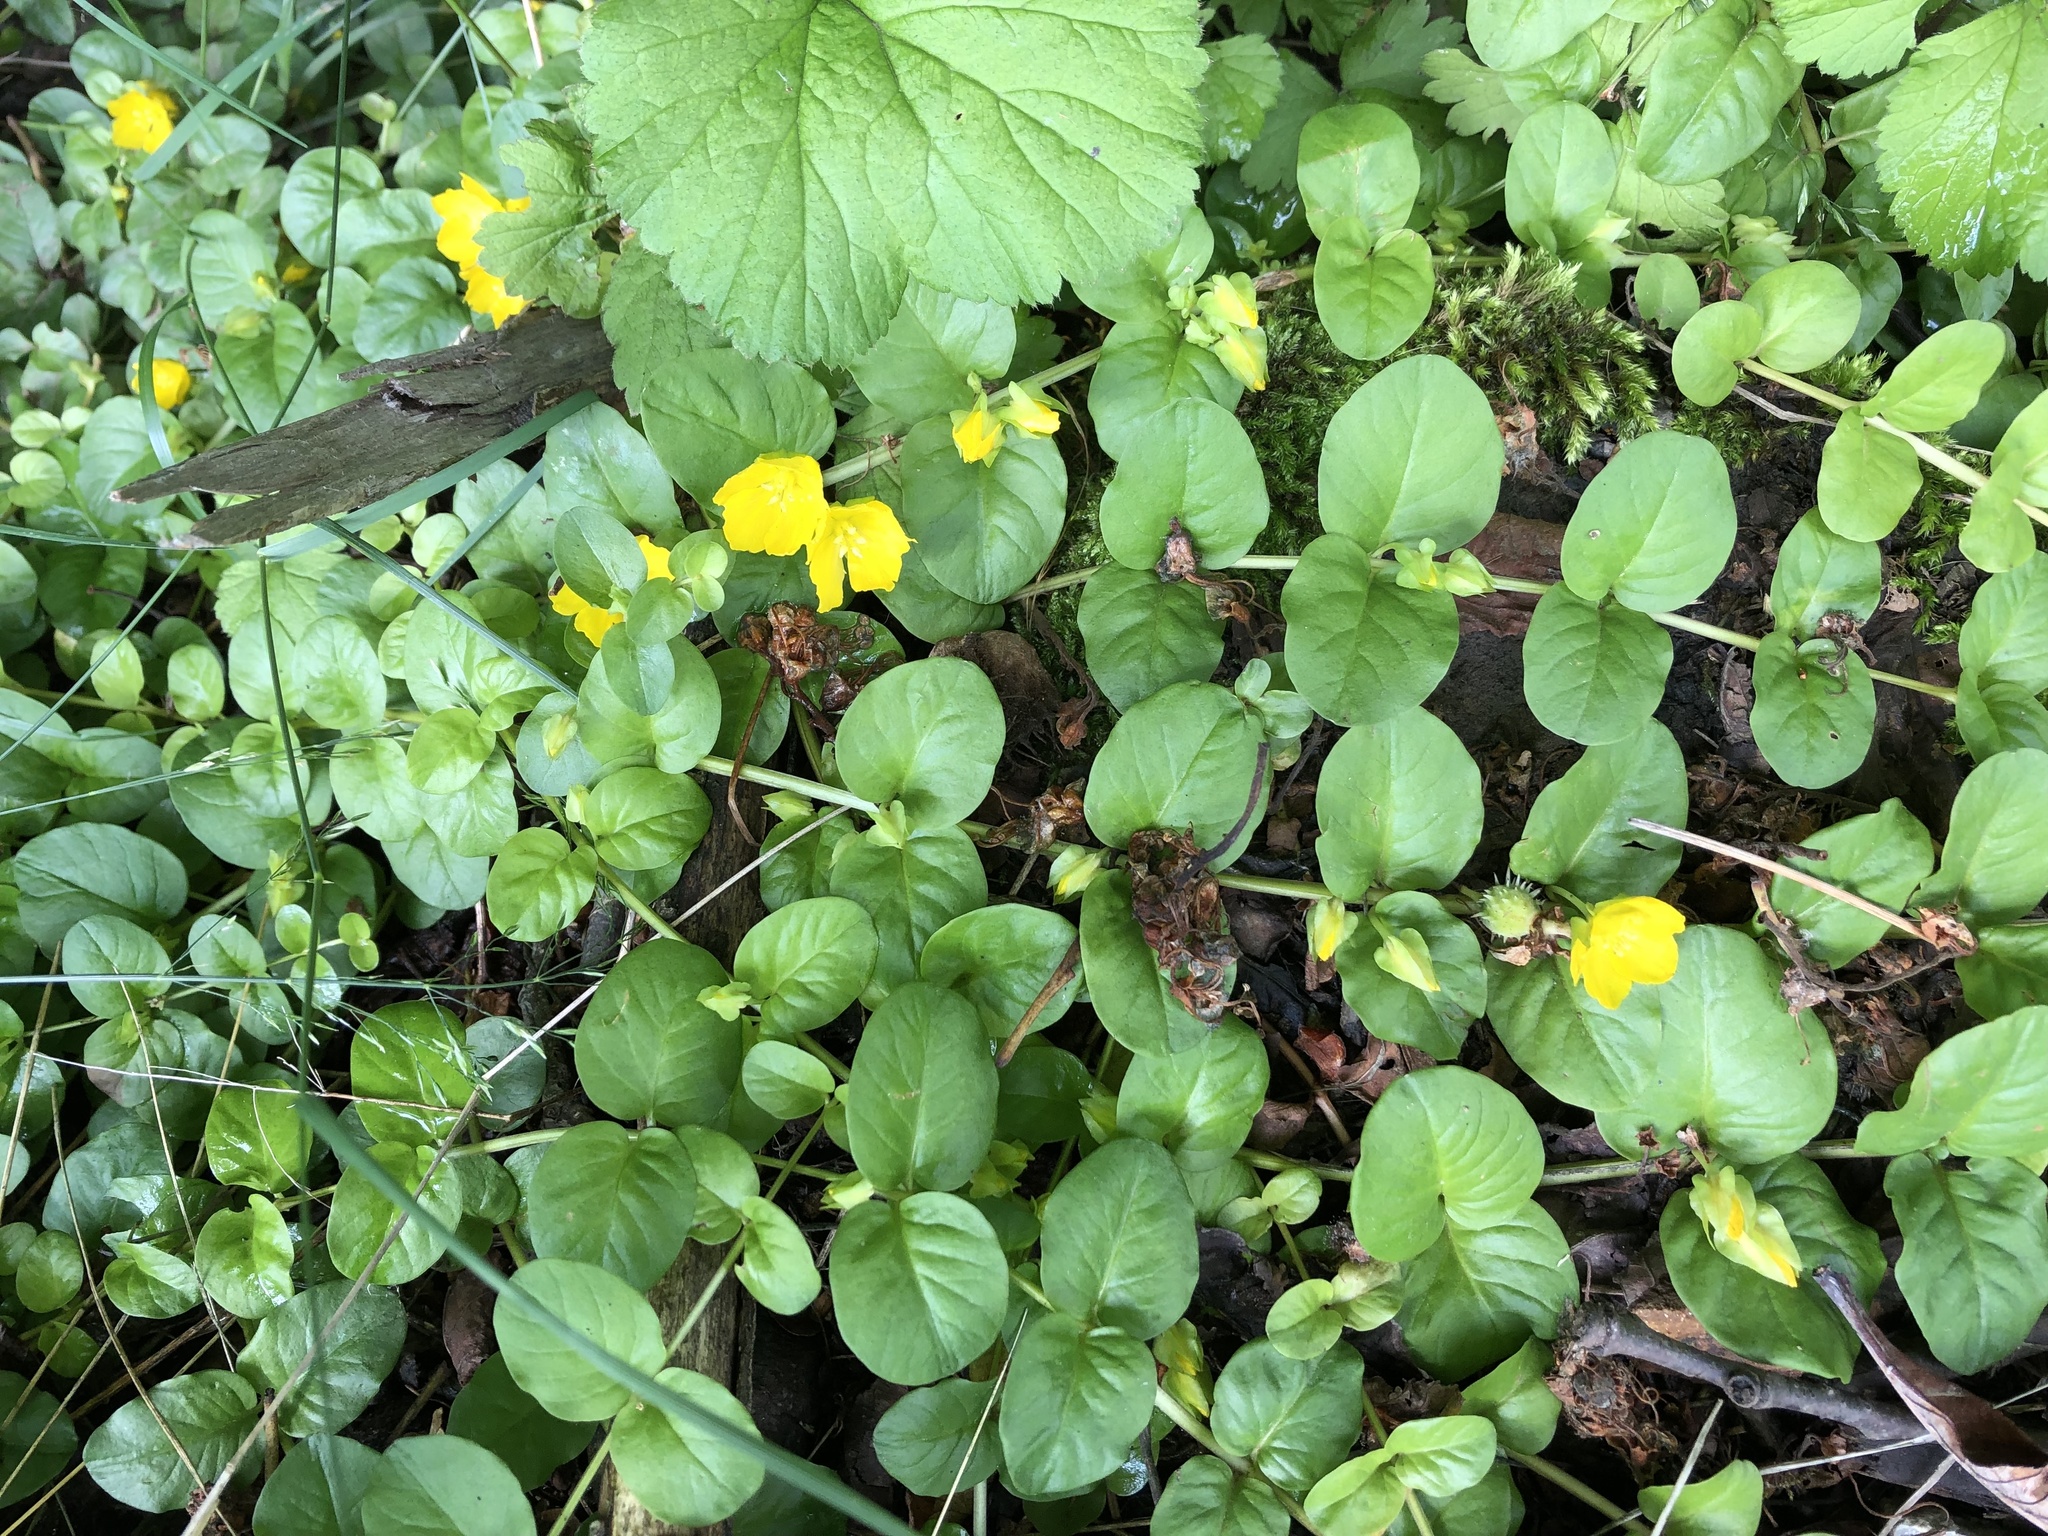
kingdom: Plantae
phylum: Tracheophyta
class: Magnoliopsida
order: Ericales
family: Primulaceae
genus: Lysimachia
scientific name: Lysimachia nummularia
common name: Moneywort
